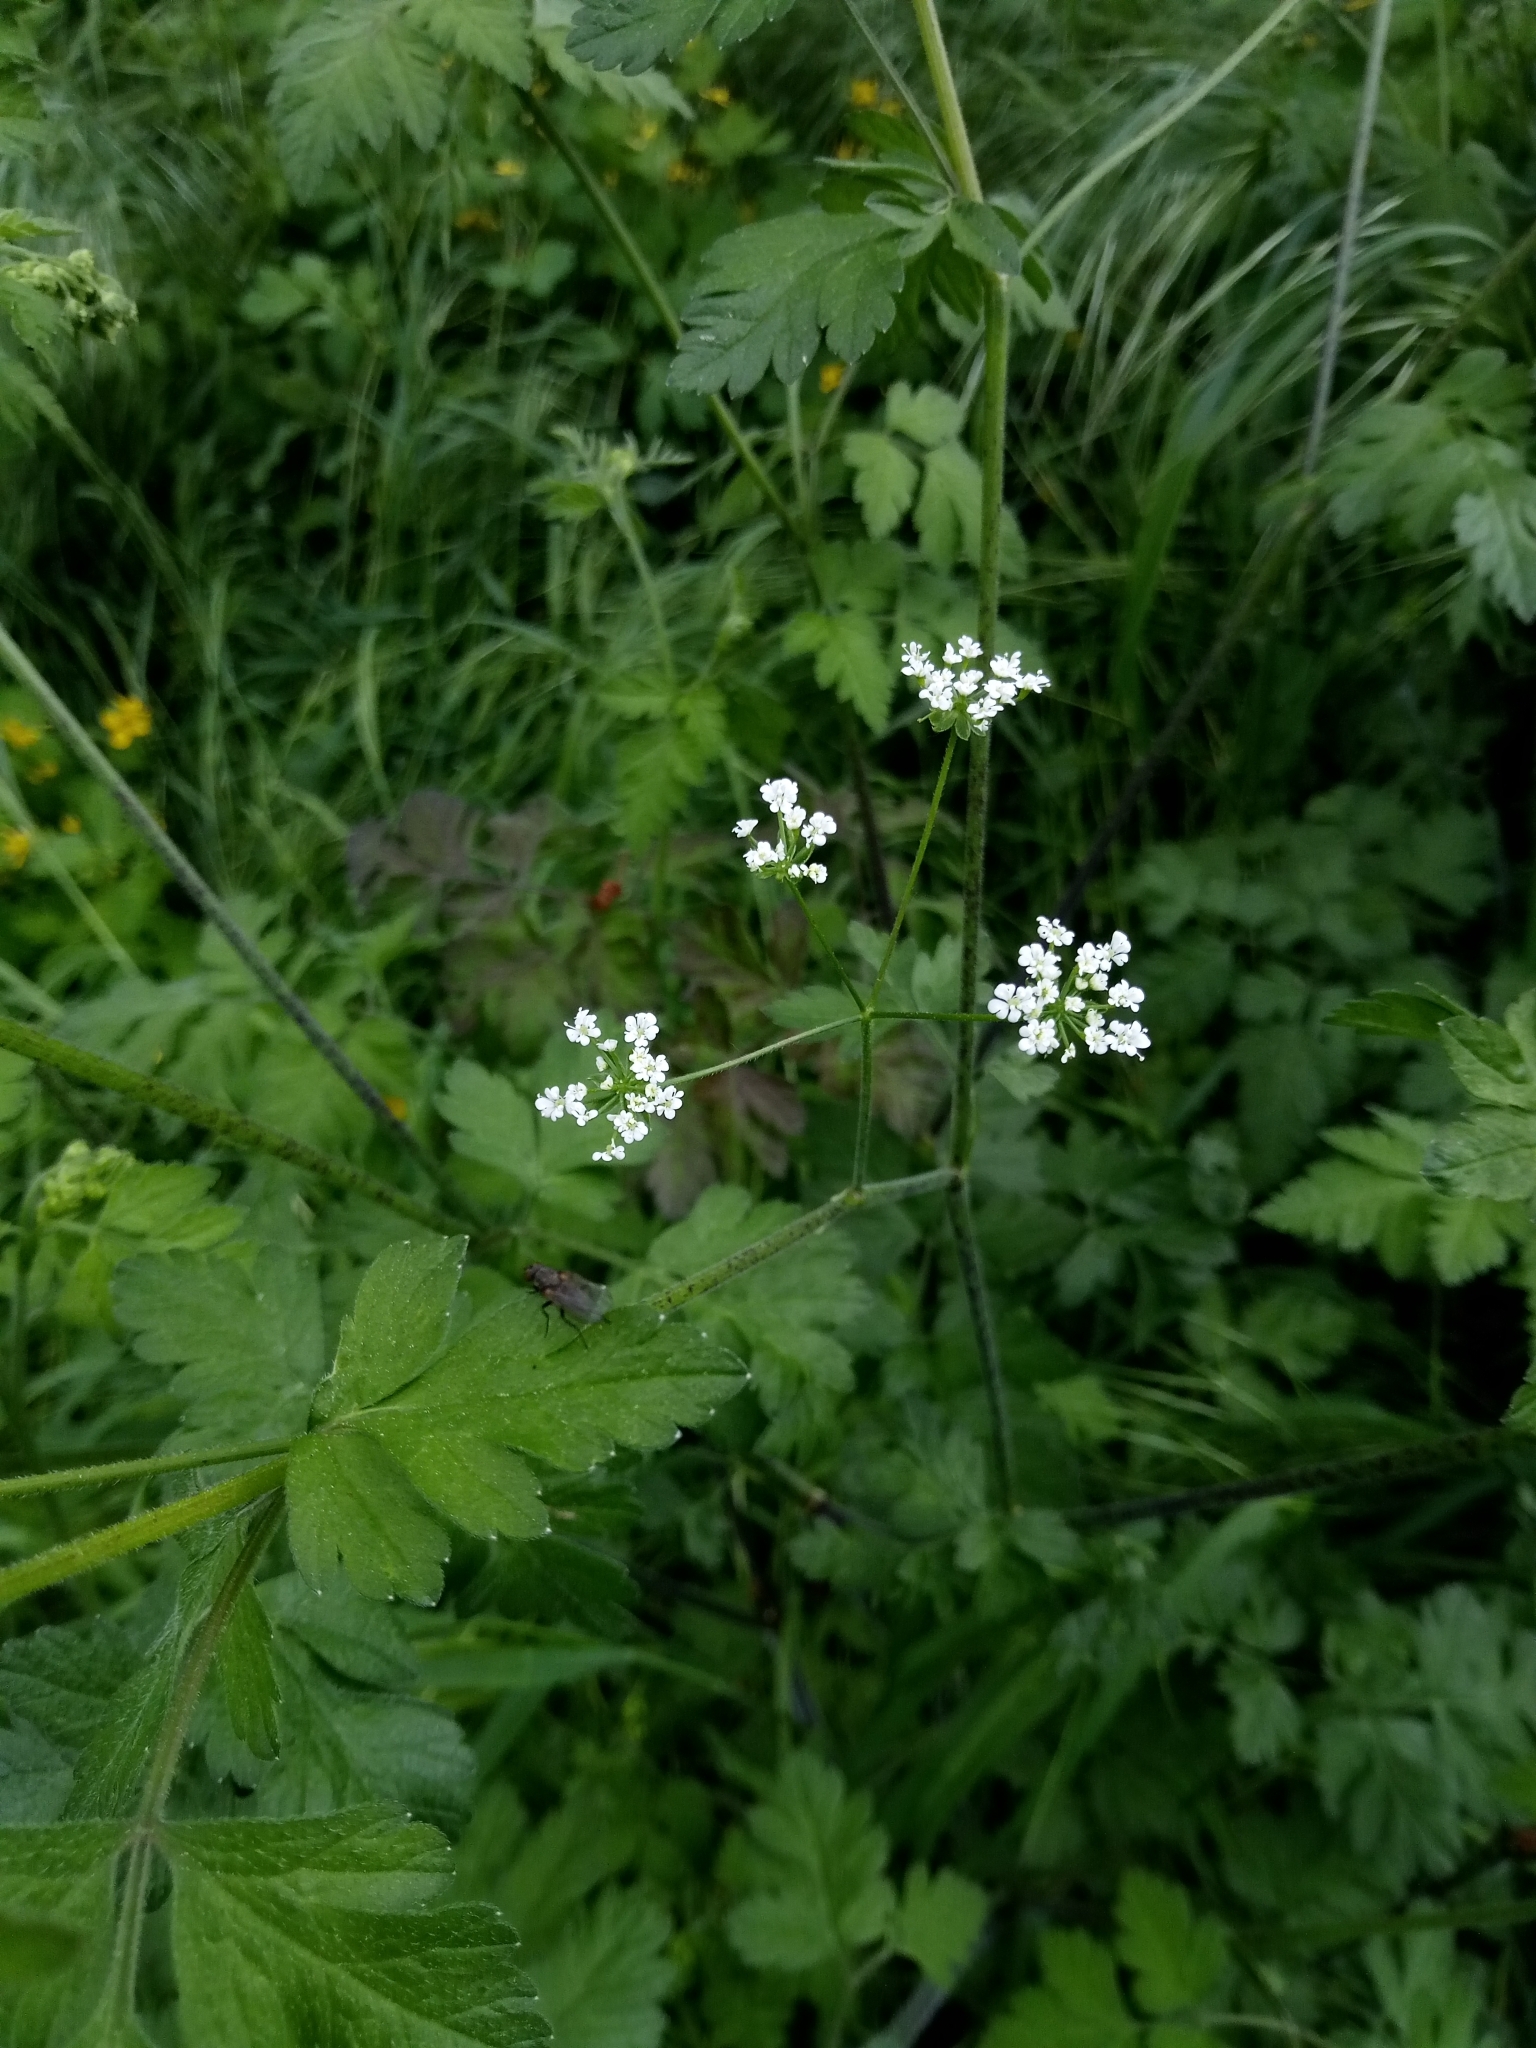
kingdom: Plantae
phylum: Tracheophyta
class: Magnoliopsida
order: Apiales
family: Apiaceae
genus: Chaerophyllum
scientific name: Chaerophyllum temulum
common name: Rough chervil
